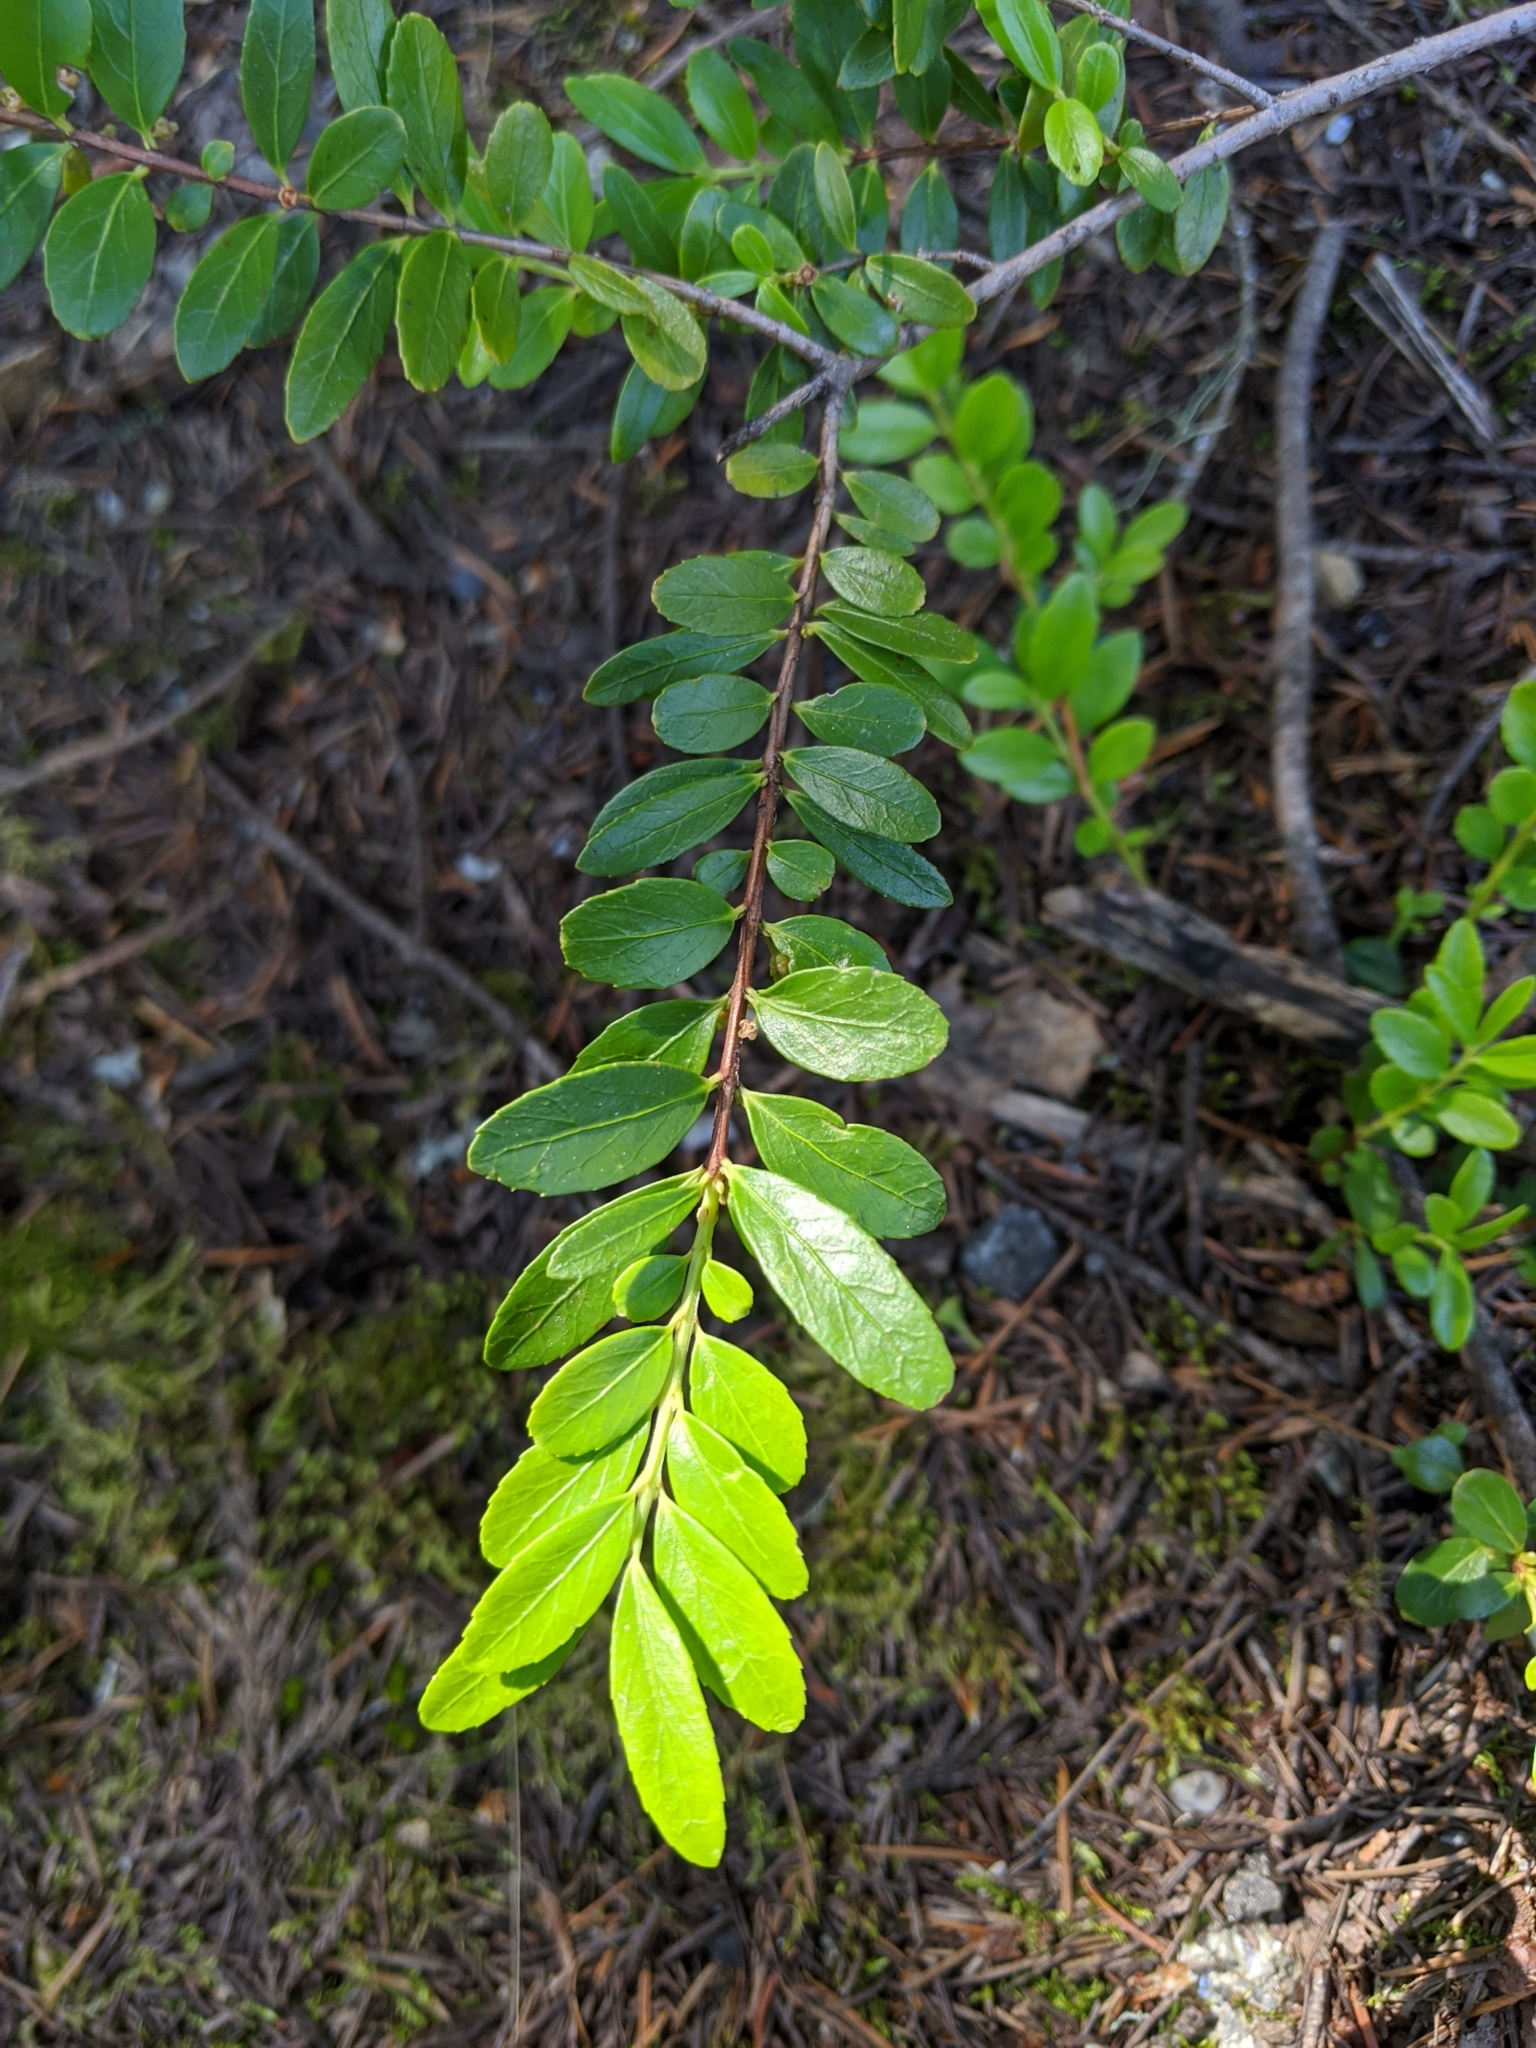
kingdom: Plantae
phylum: Tracheophyta
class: Magnoliopsida
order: Celastrales
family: Celastraceae
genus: Paxistima
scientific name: Paxistima myrsinites
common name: Mountain-lover
